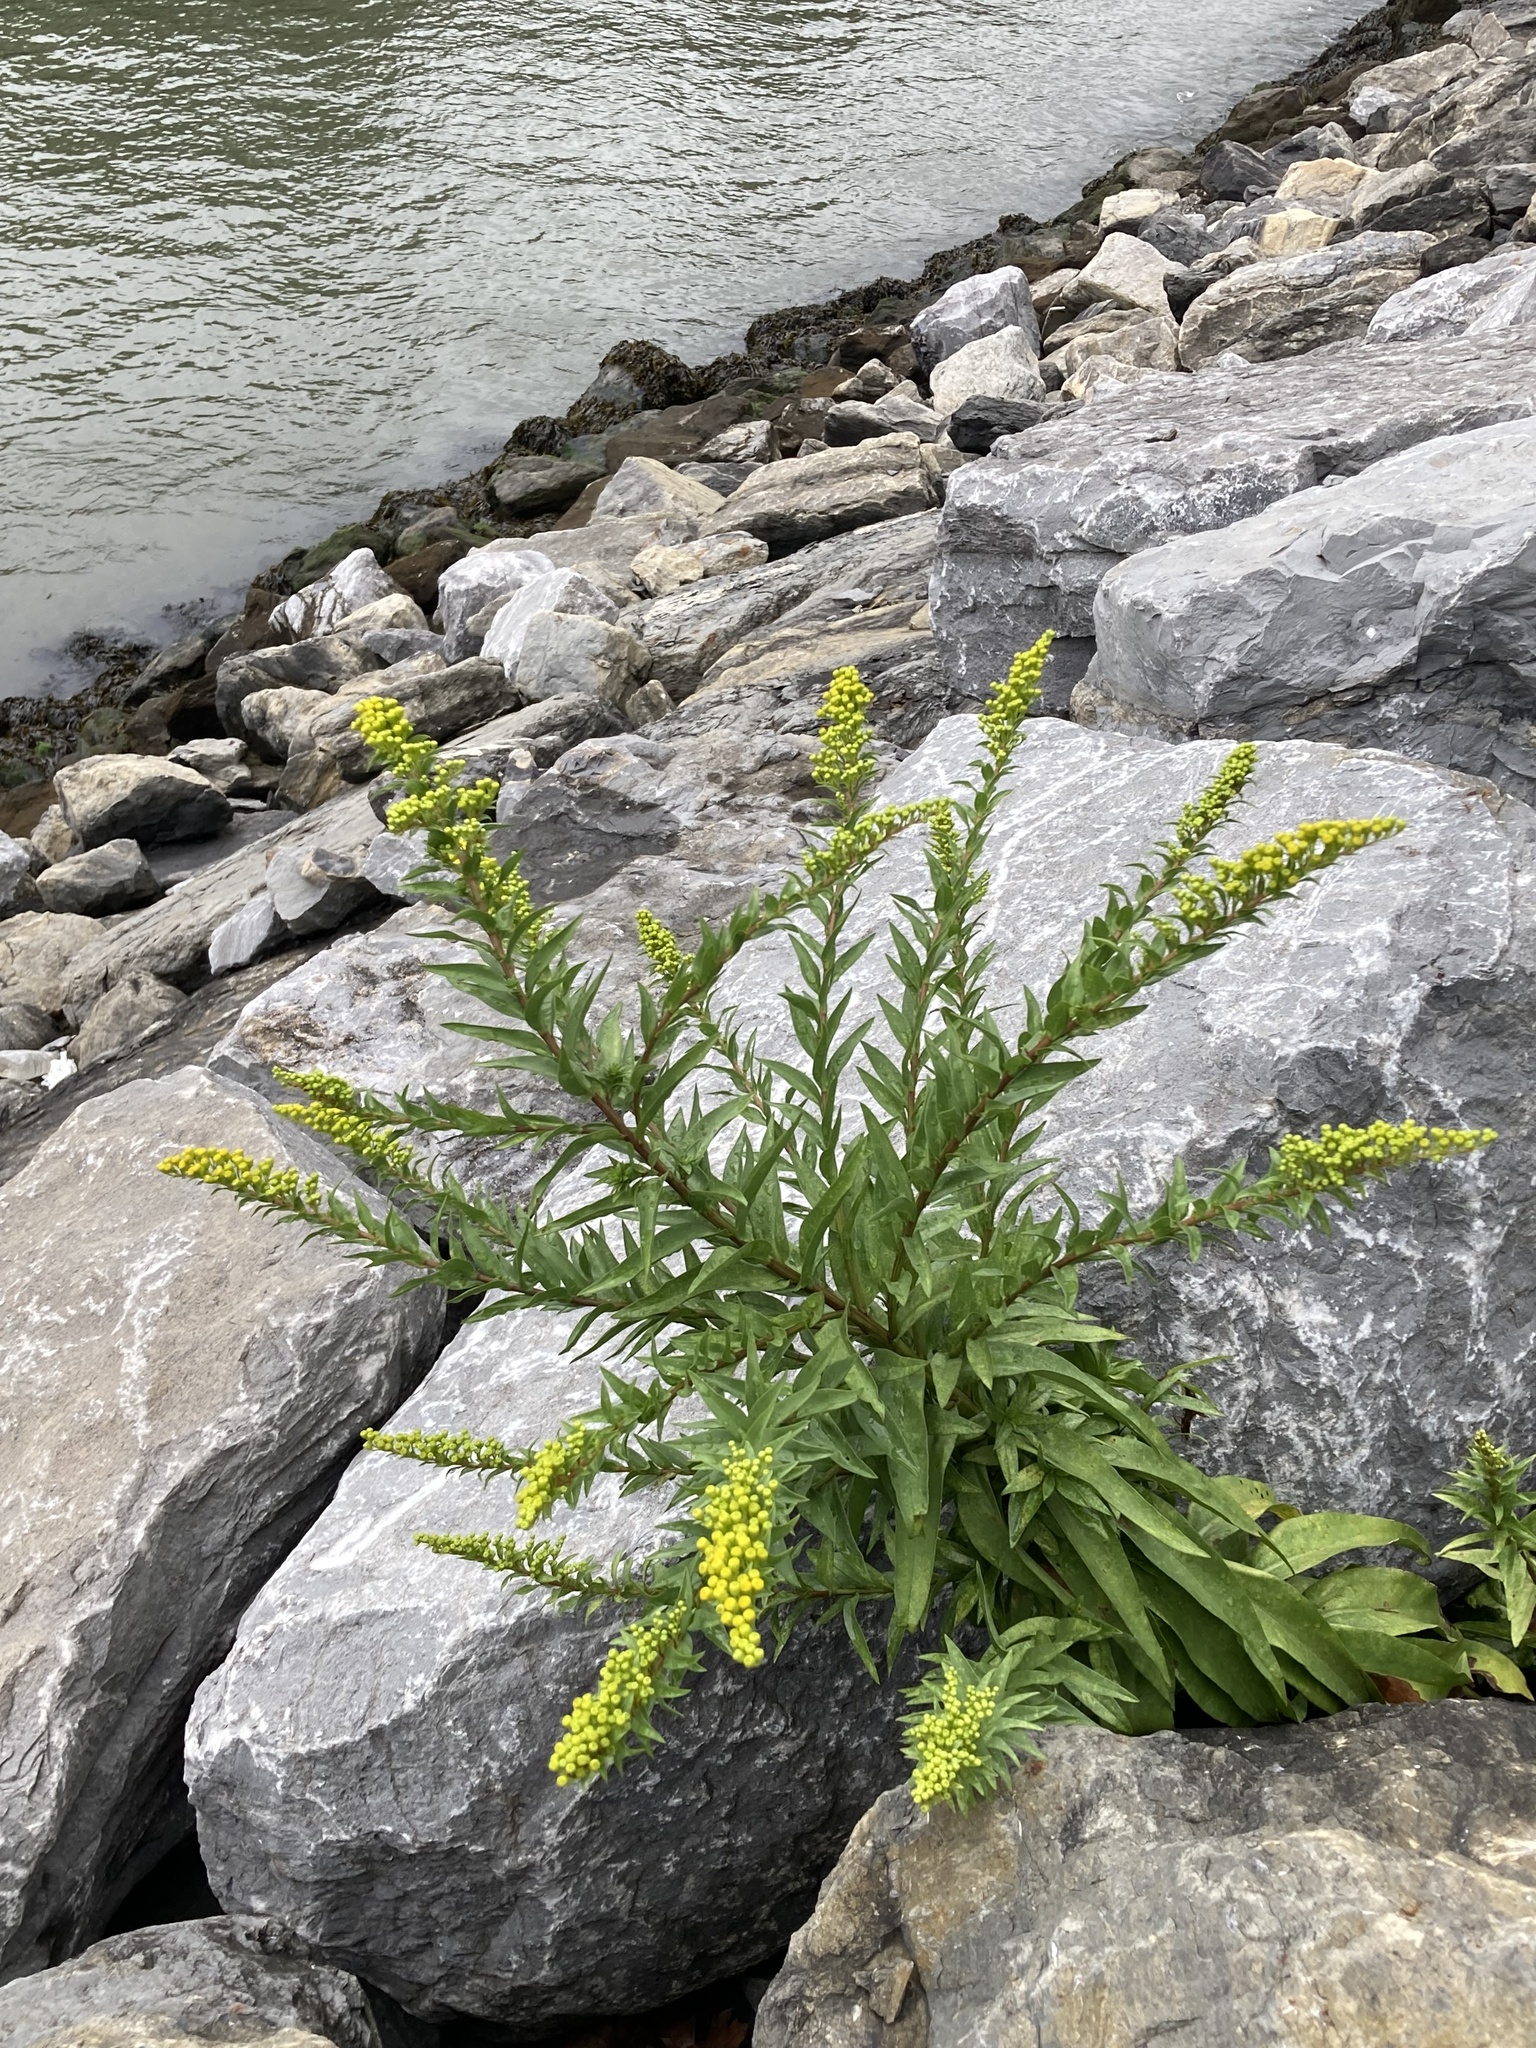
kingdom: Plantae
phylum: Tracheophyta
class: Magnoliopsida
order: Asterales
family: Asteraceae
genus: Solidago
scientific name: Solidago sempervirens
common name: Salt-marsh goldenrod
